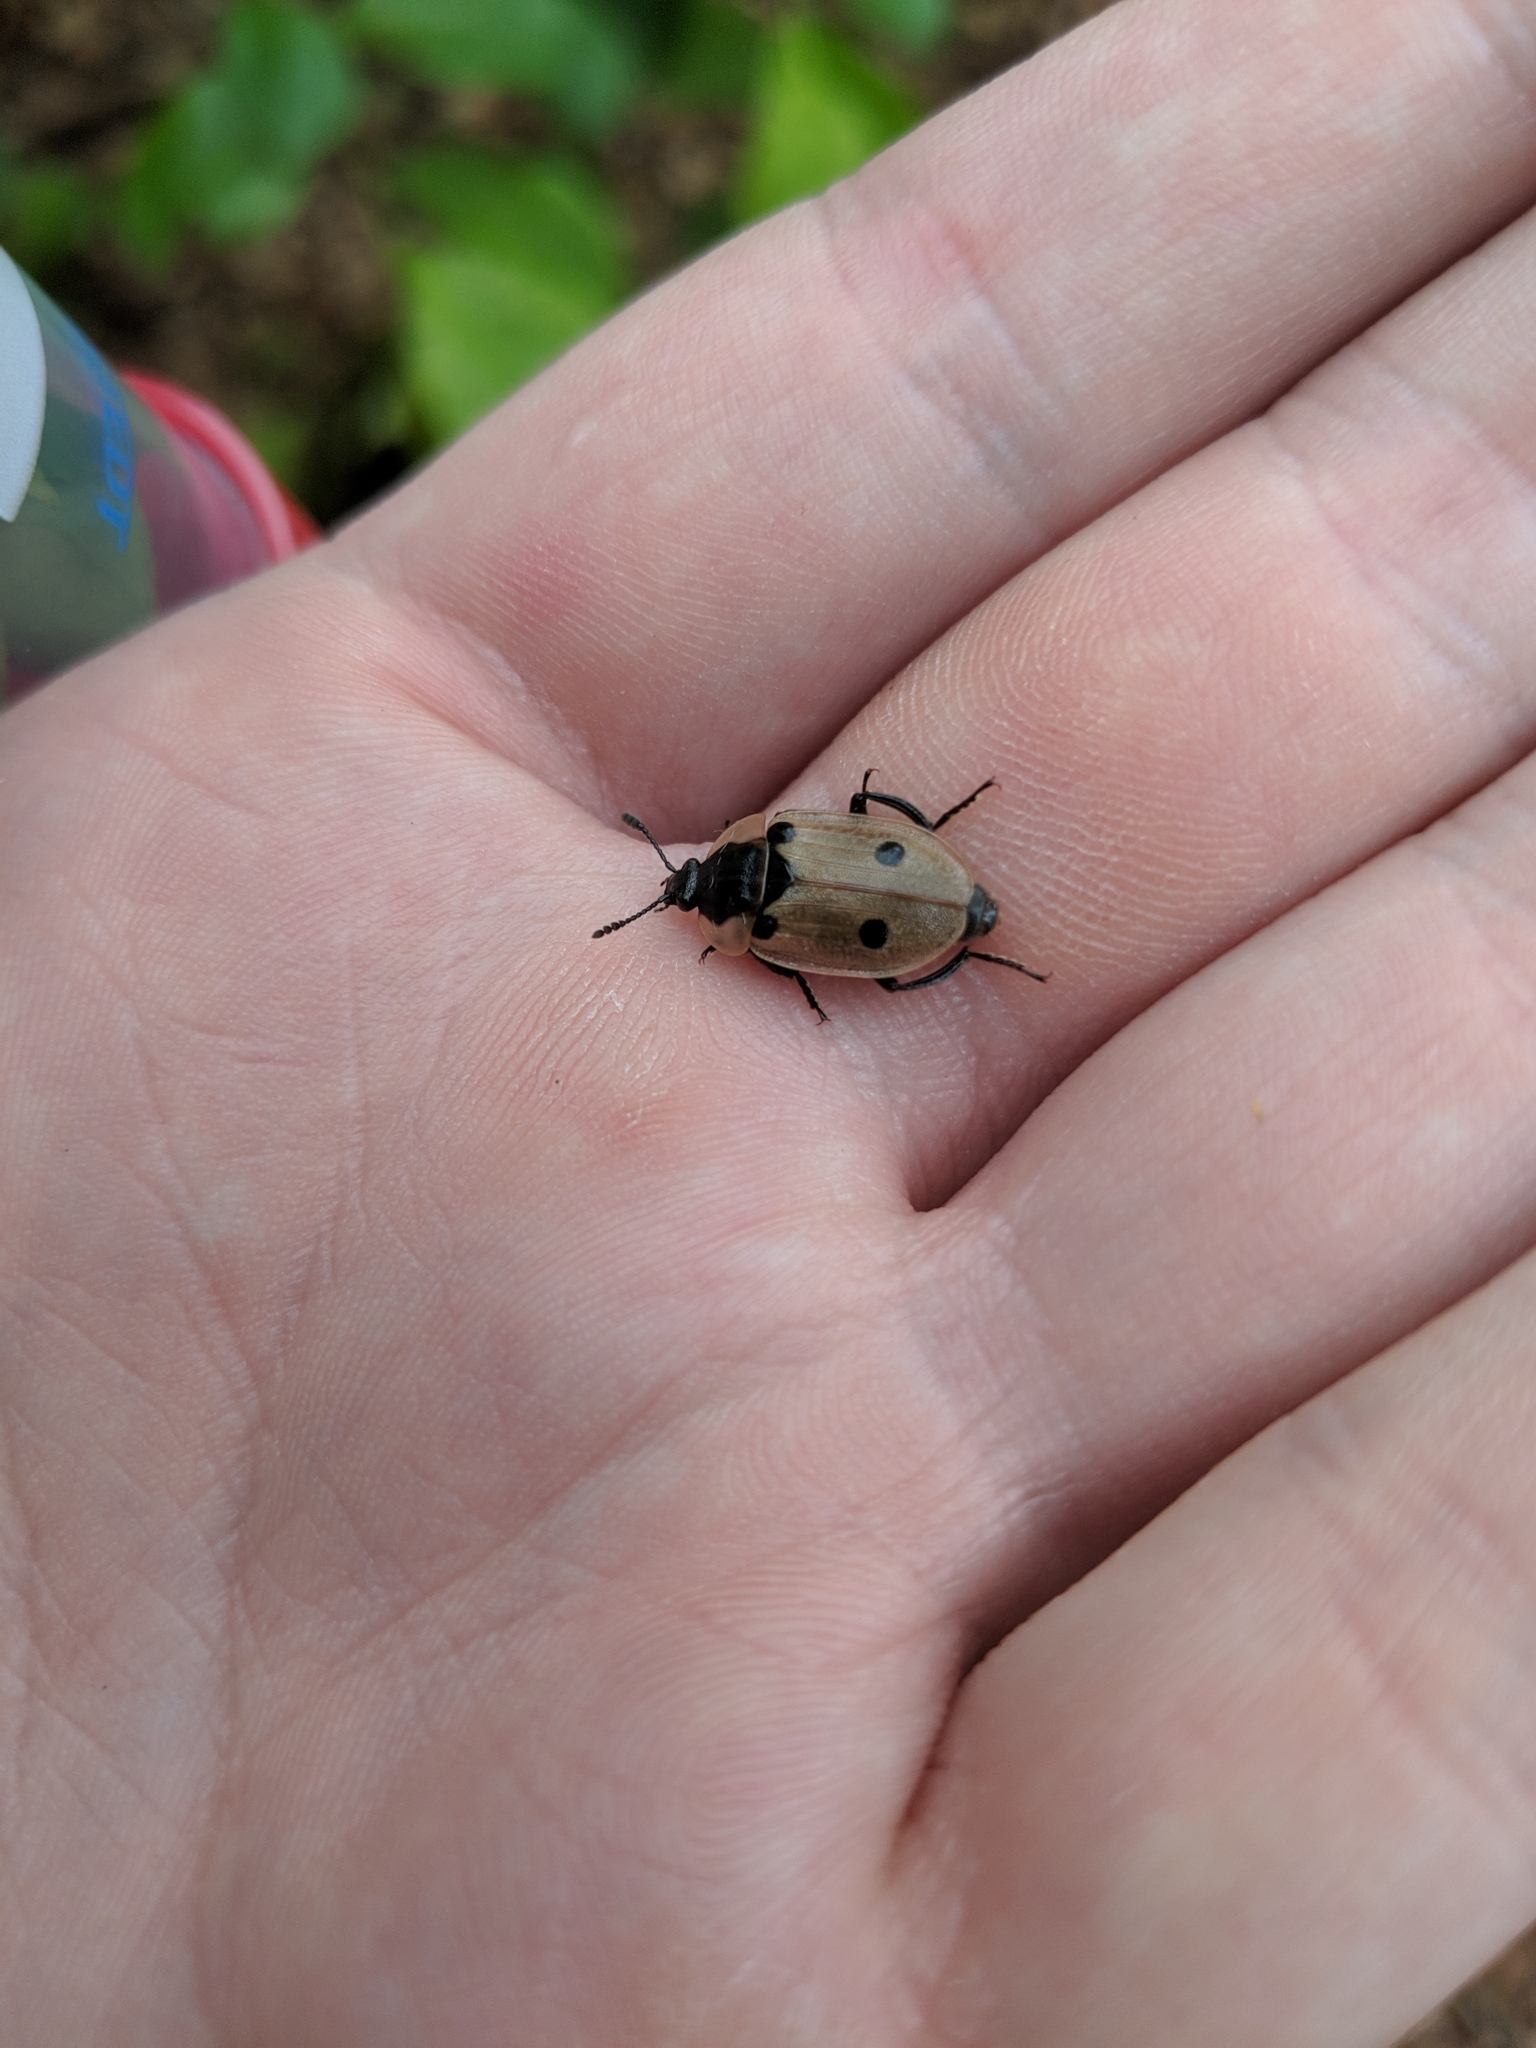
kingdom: Animalia
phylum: Arthropoda
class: Insecta
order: Coleoptera
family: Staphylinidae
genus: Dendroxena
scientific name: Dendroxena quadrimaculata
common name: Carrion beetle
